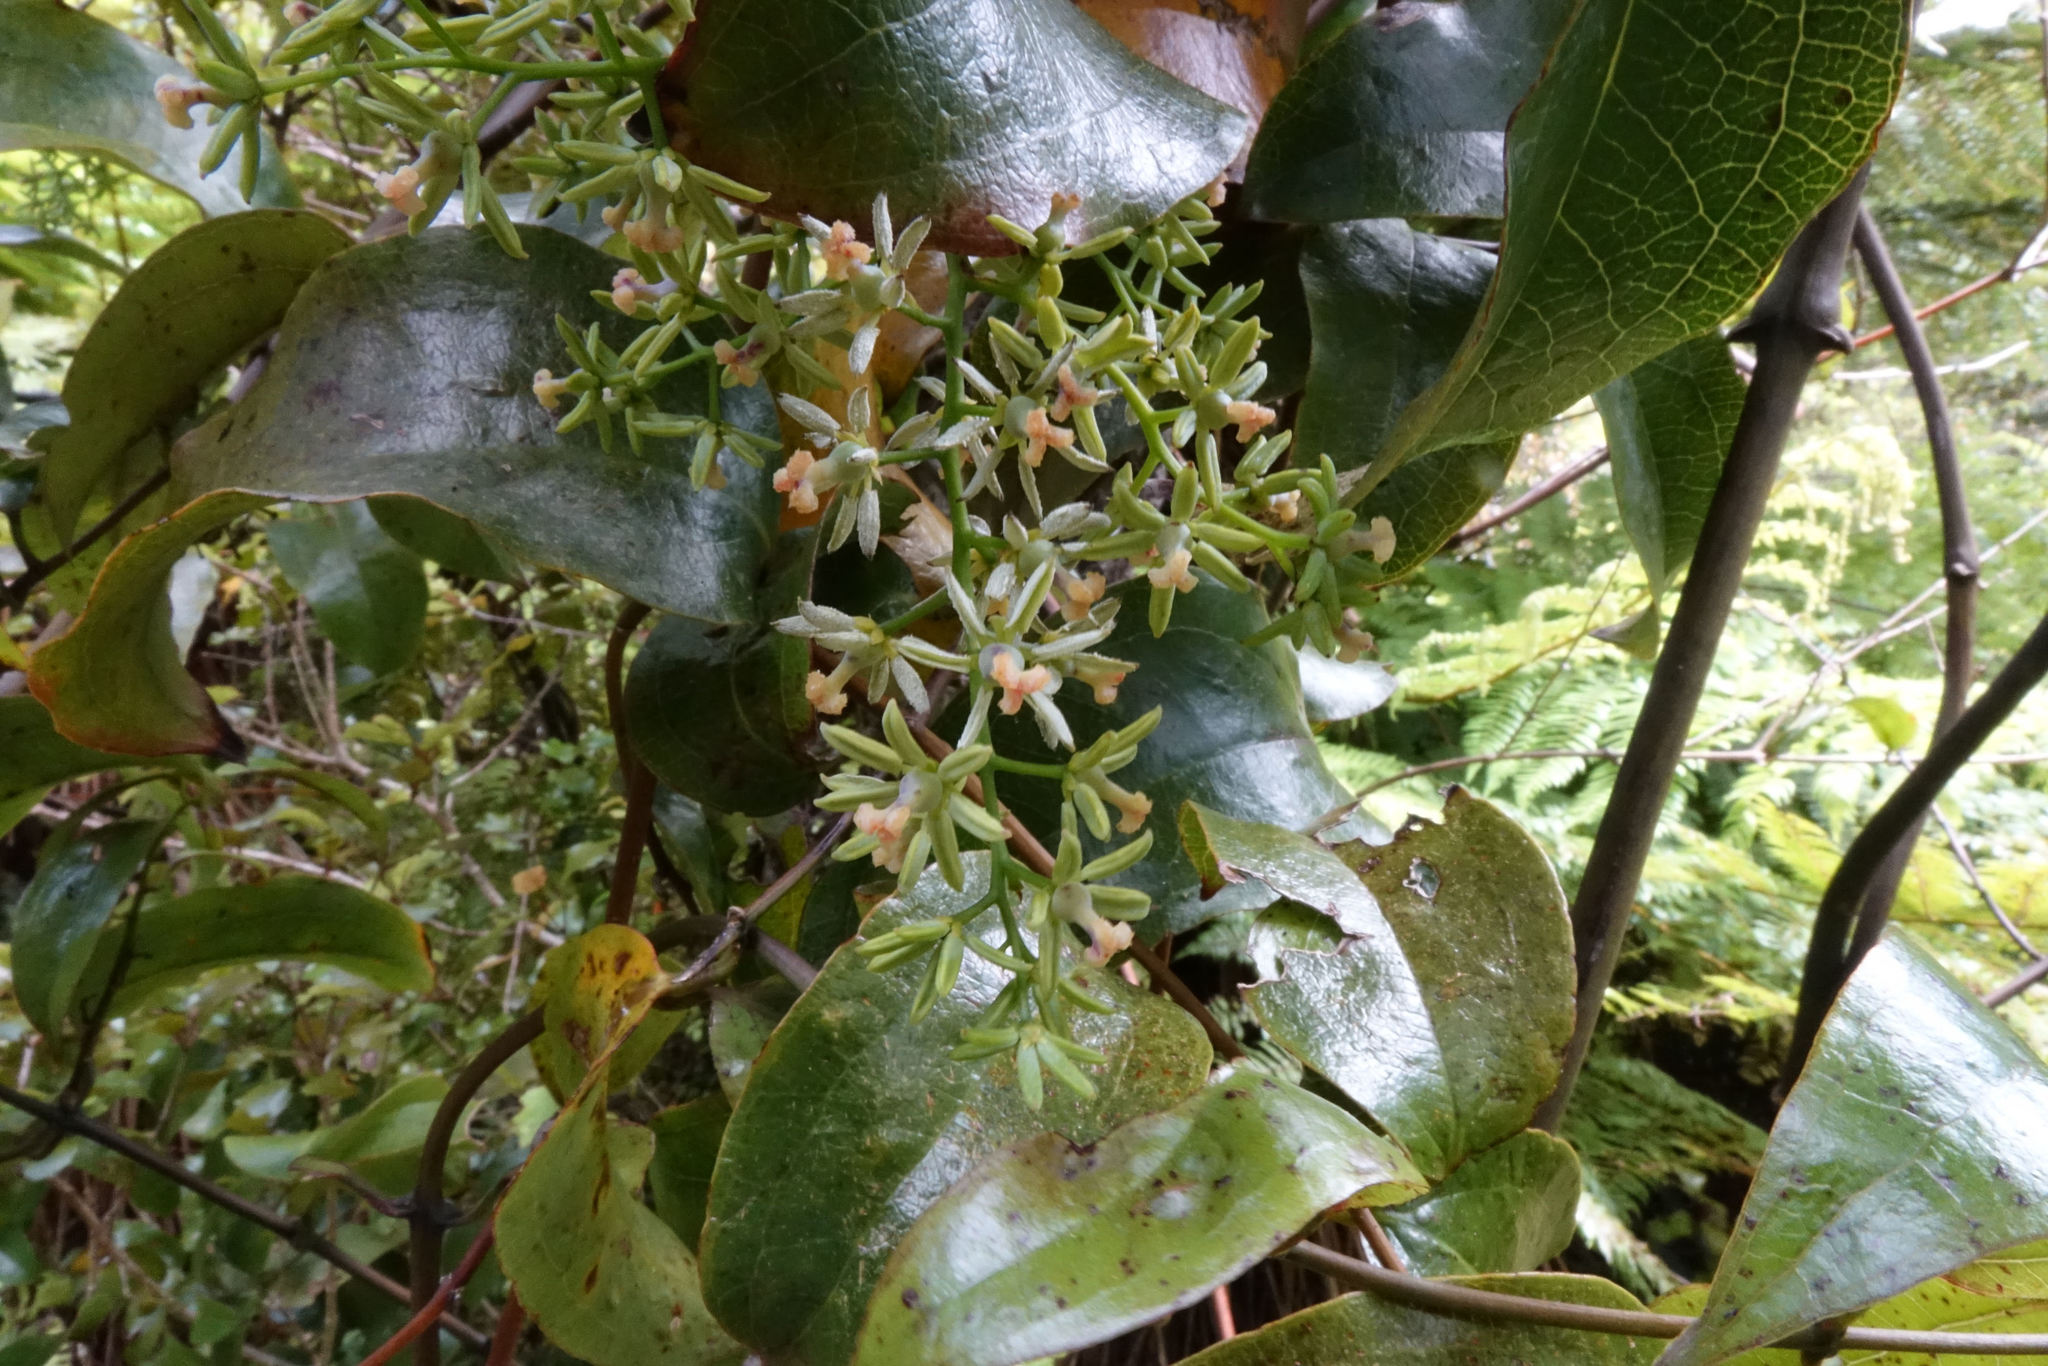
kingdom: Plantae
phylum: Tracheophyta
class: Liliopsida
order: Liliales
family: Ripogonaceae
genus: Ripogonum
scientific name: Ripogonum scandens
